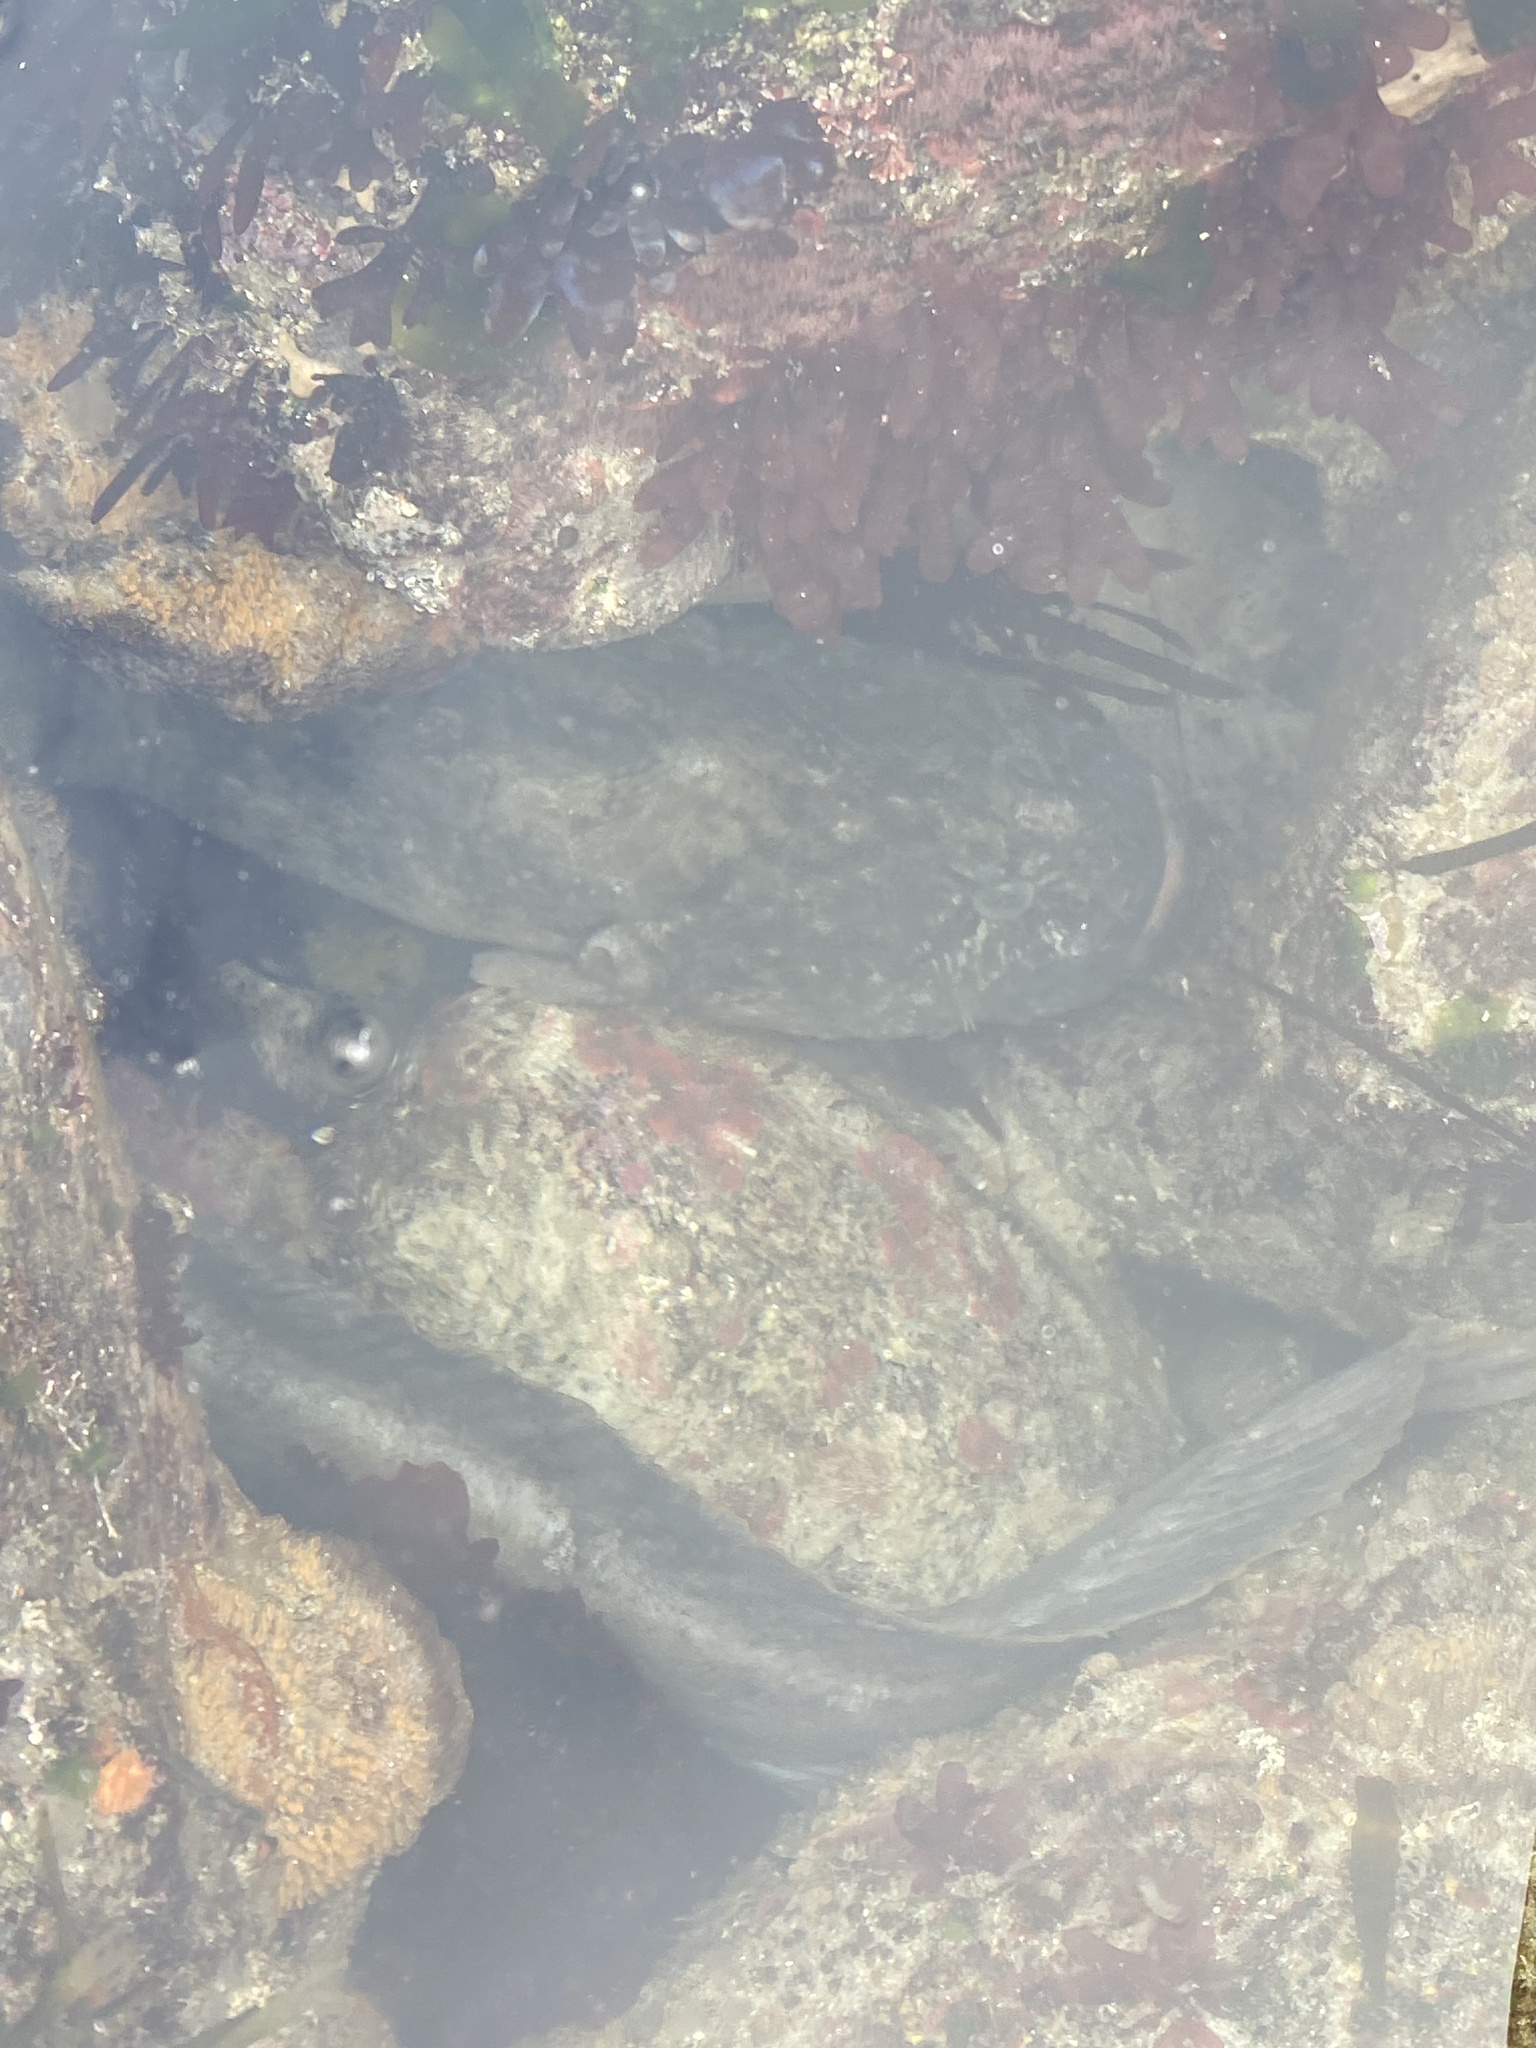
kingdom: Animalia
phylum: Chordata
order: Perciformes
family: Stichaeidae
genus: Cebidichthys
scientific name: Cebidichthys violaceus
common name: Monkeyface prickleback
